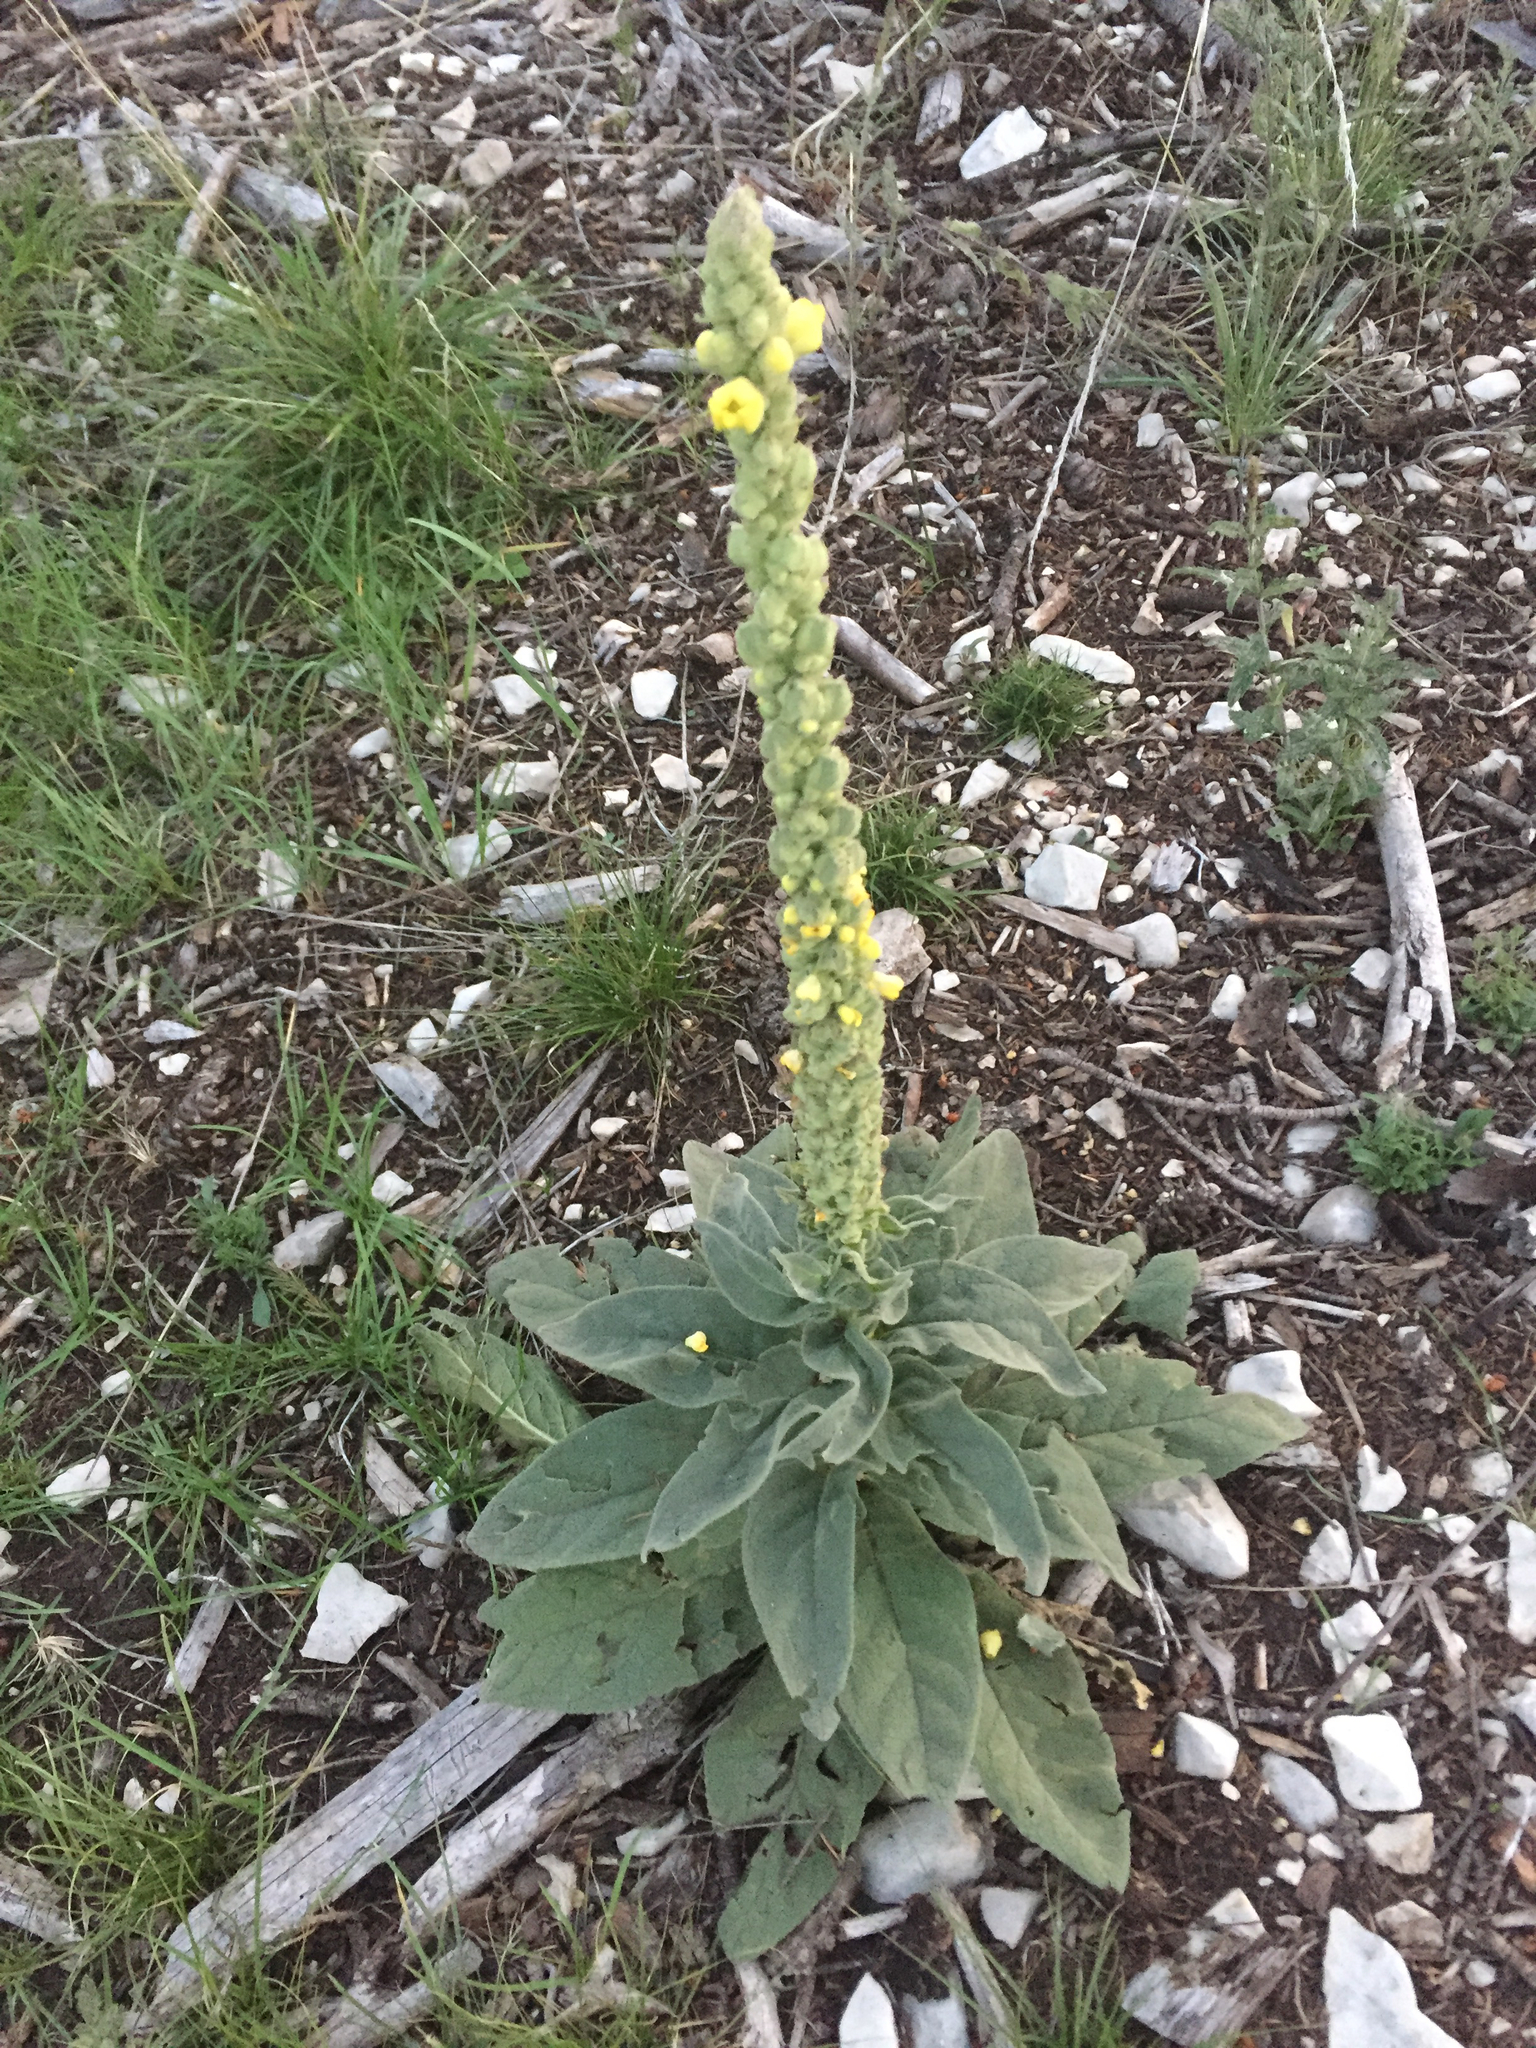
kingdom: Plantae
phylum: Tracheophyta
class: Magnoliopsida
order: Lamiales
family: Scrophulariaceae
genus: Verbascum
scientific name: Verbascum thapsus
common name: Common mullein
